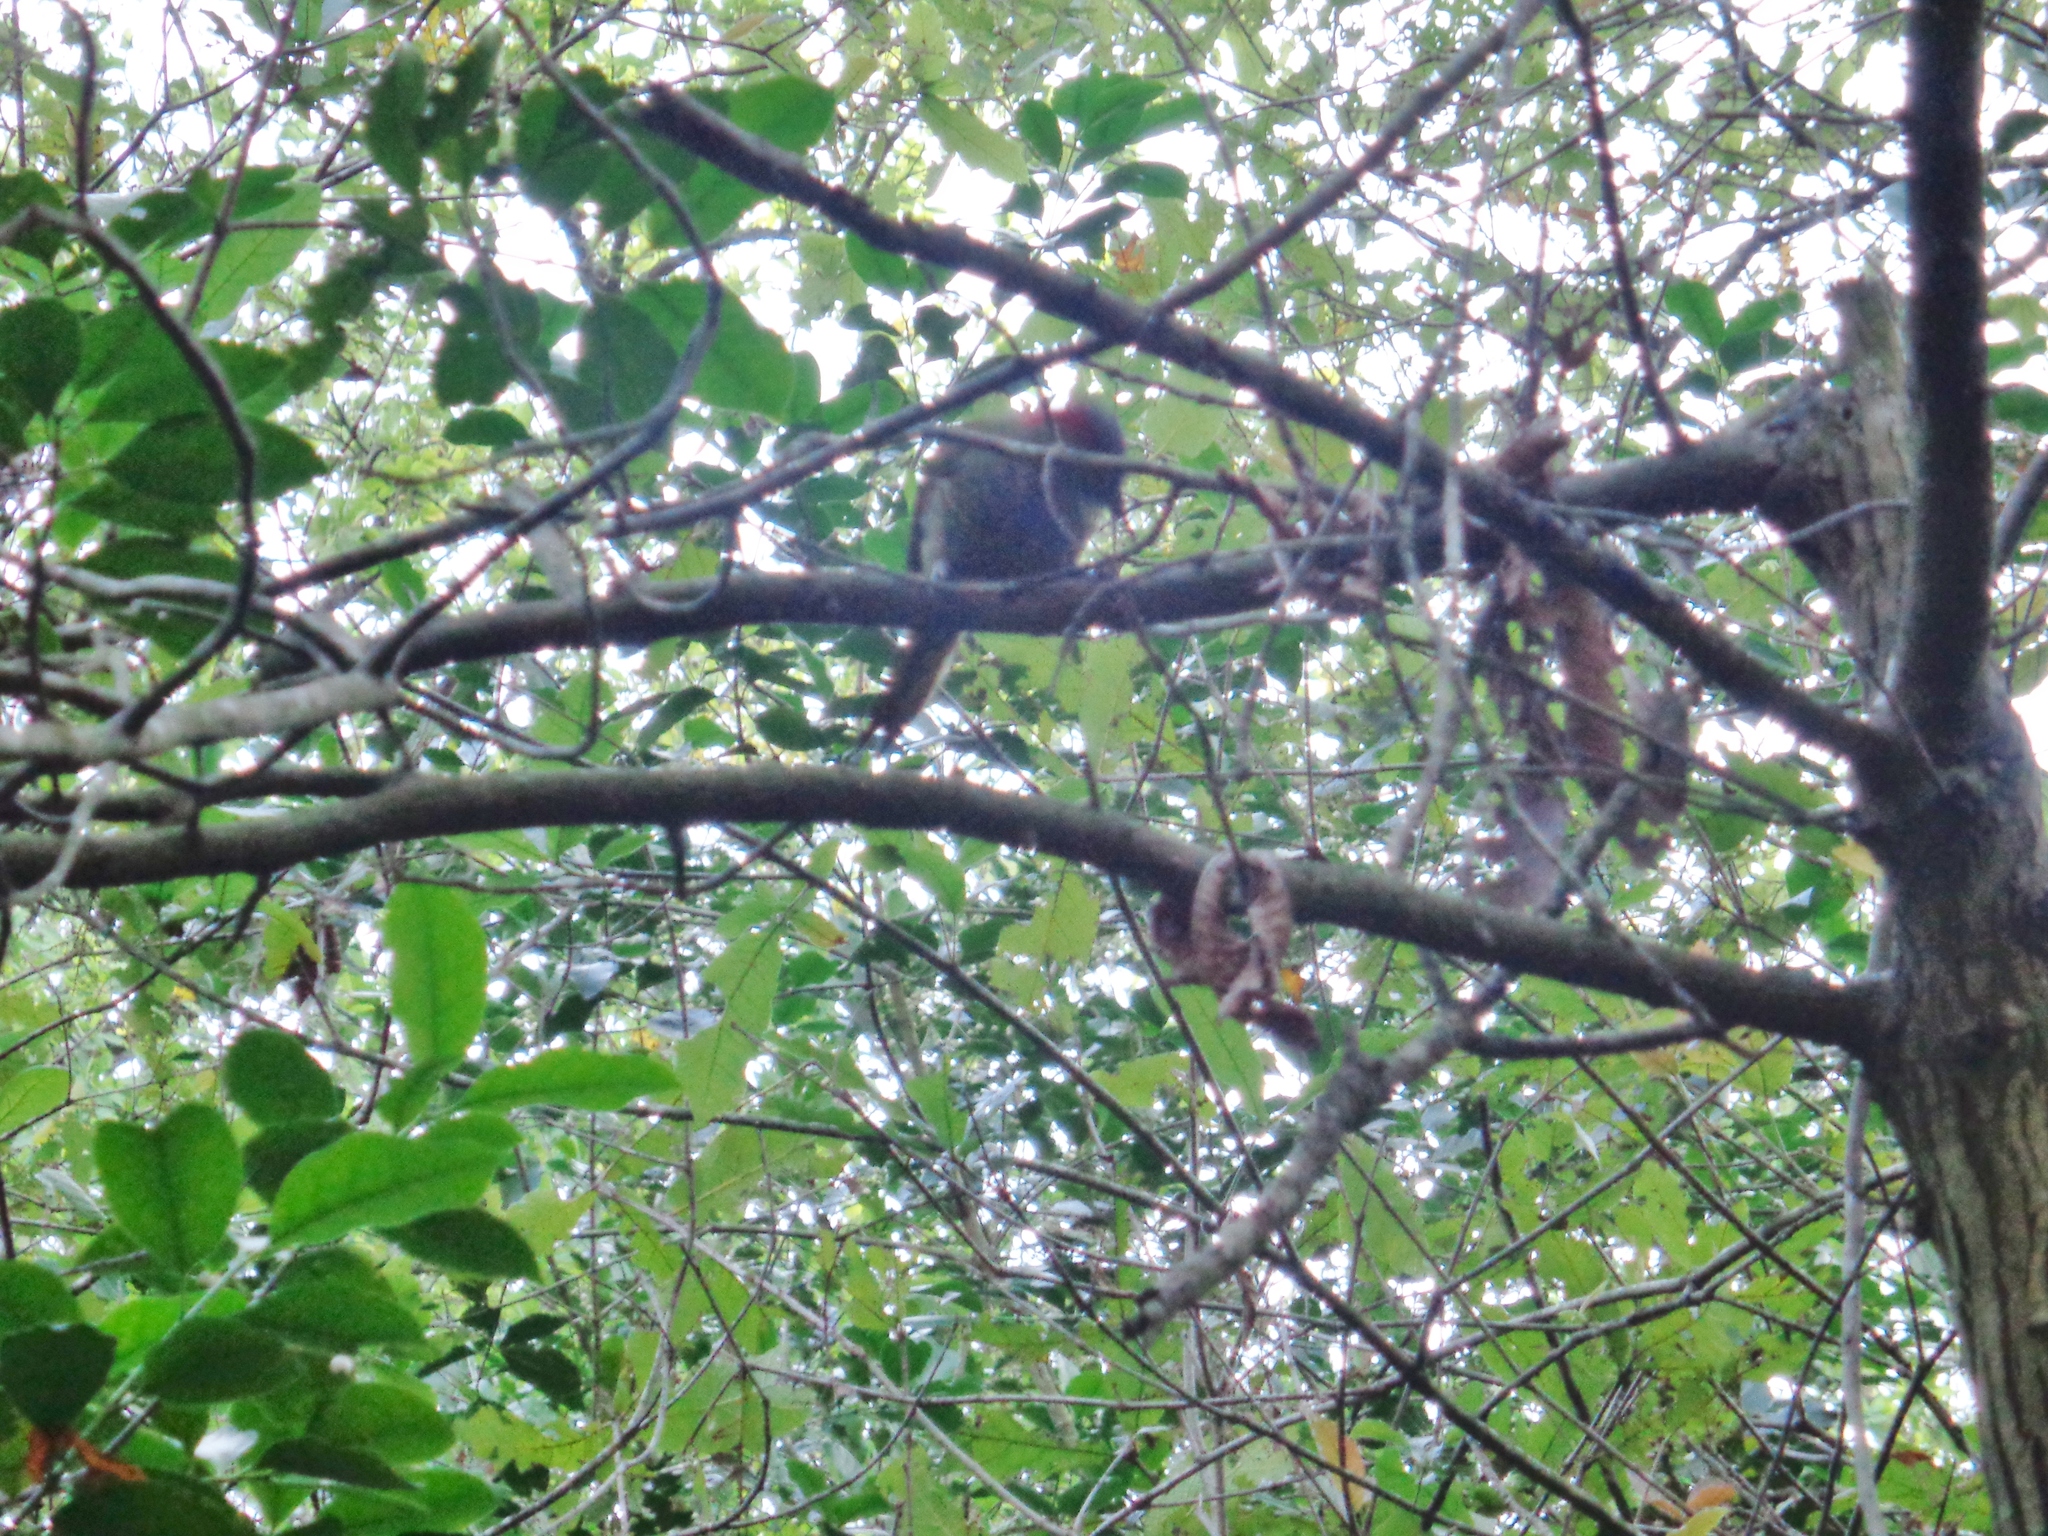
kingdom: Animalia
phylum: Chordata
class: Aves
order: Piciformes
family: Picidae
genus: Colaptes
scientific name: Colaptes rubiginosus
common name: Golden-olive woodpecker
